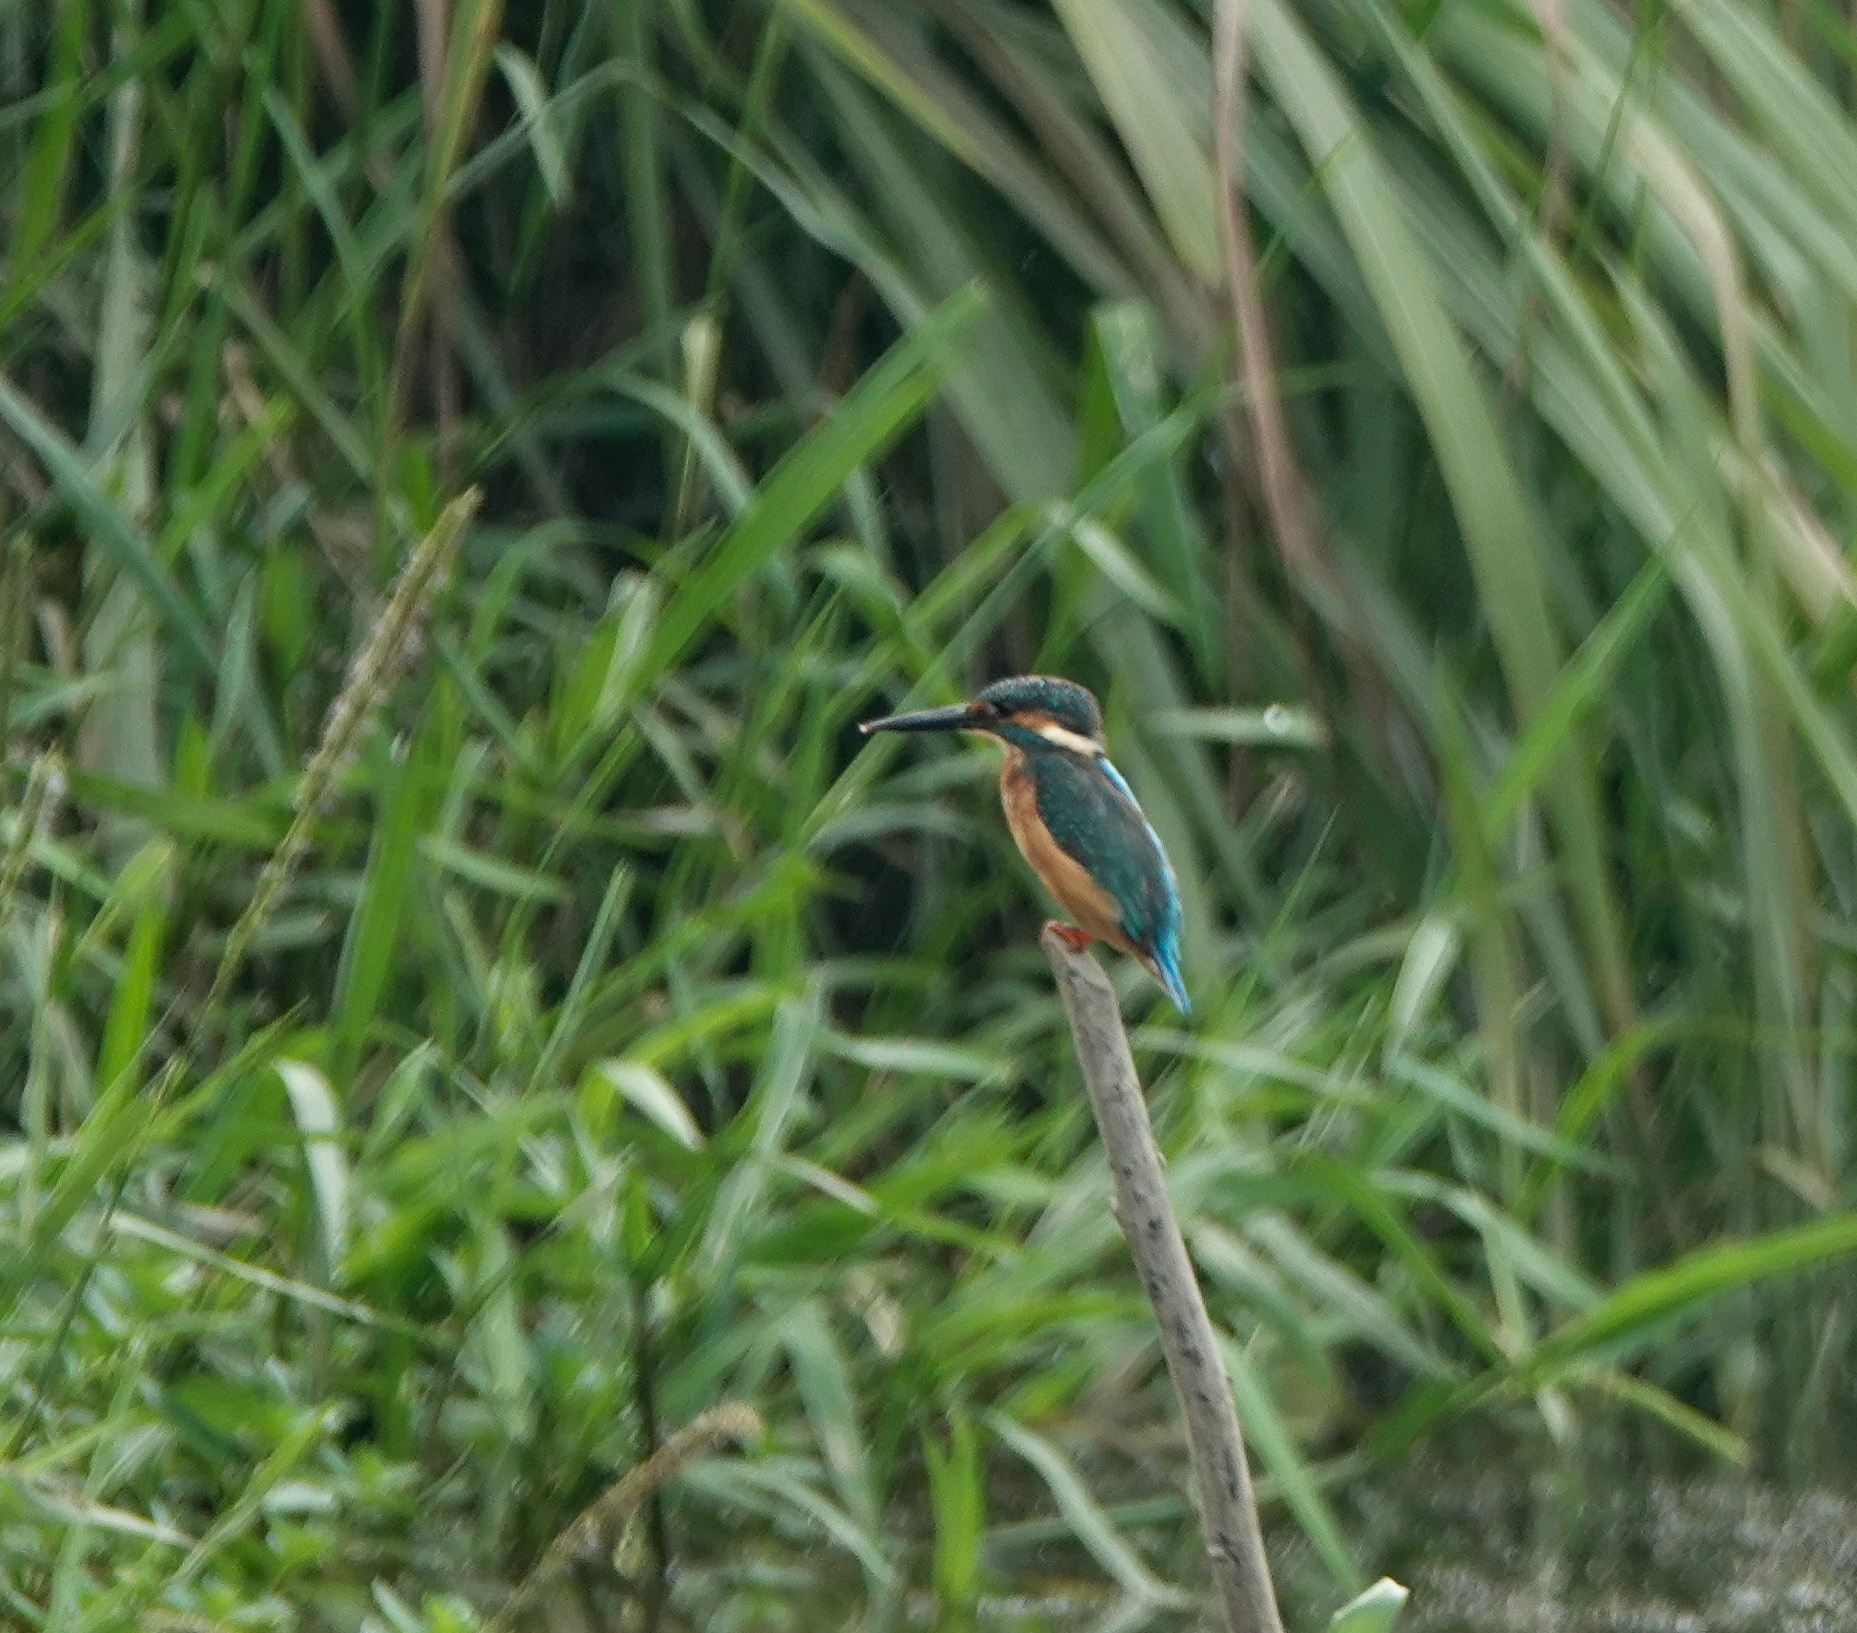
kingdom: Animalia
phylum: Chordata
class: Aves
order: Coraciiformes
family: Alcedinidae
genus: Alcedo
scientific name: Alcedo atthis
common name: Common kingfisher
